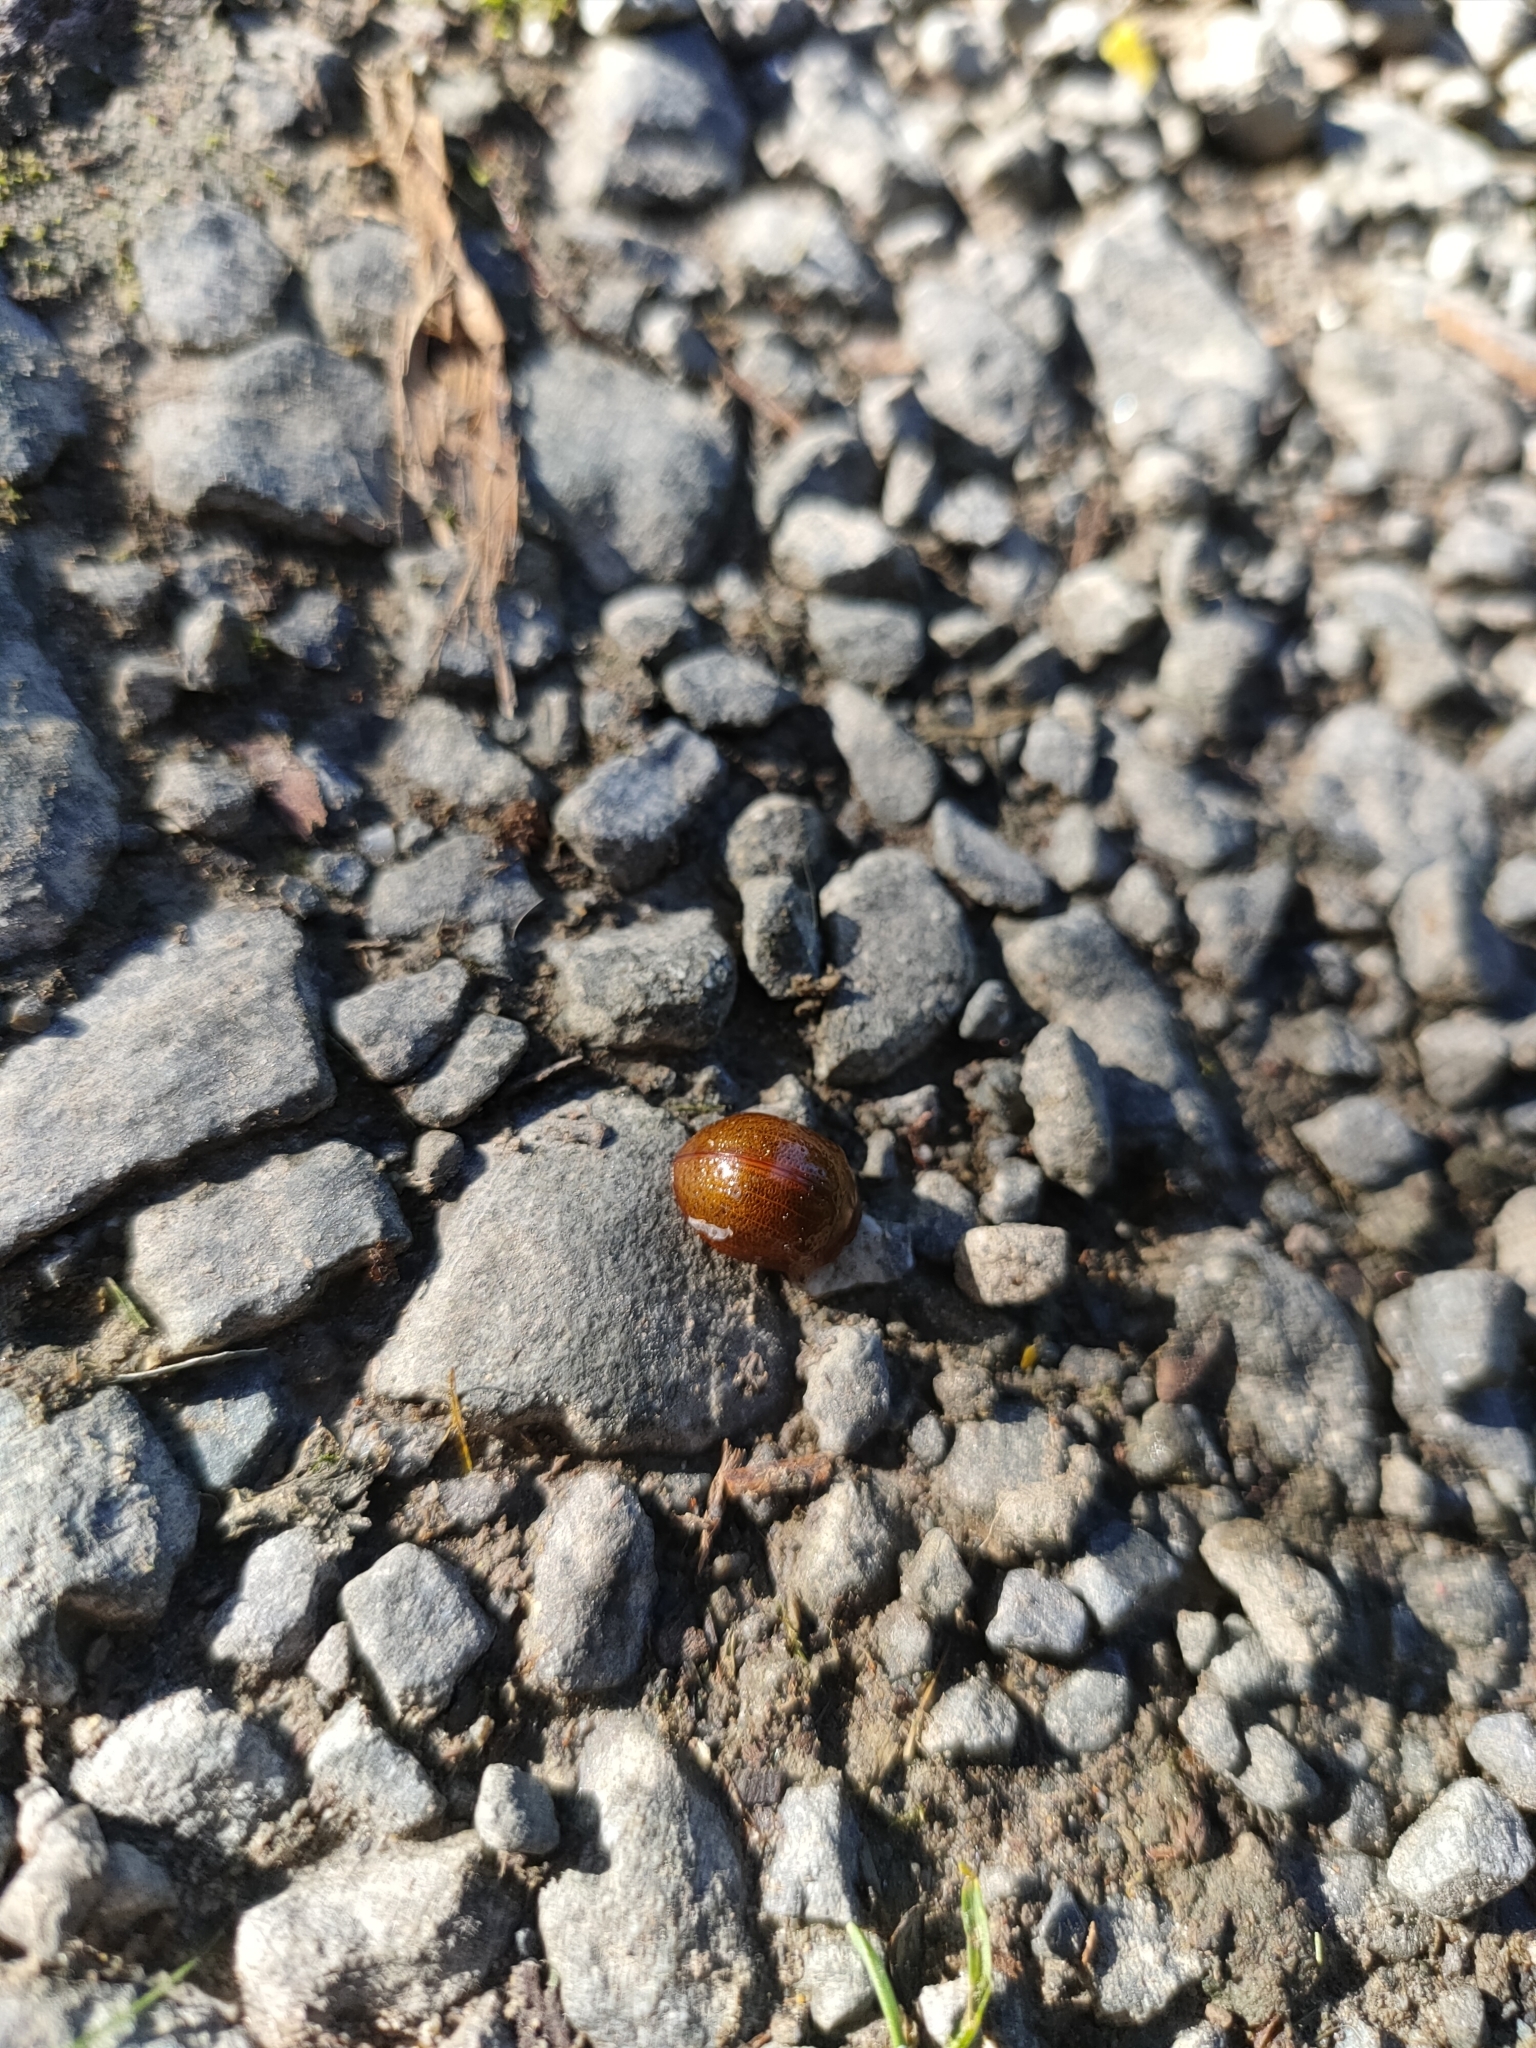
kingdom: Animalia
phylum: Arthropoda
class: Insecta
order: Coleoptera
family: Chrysomelidae
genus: Dicranosterna
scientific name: Dicranosterna
